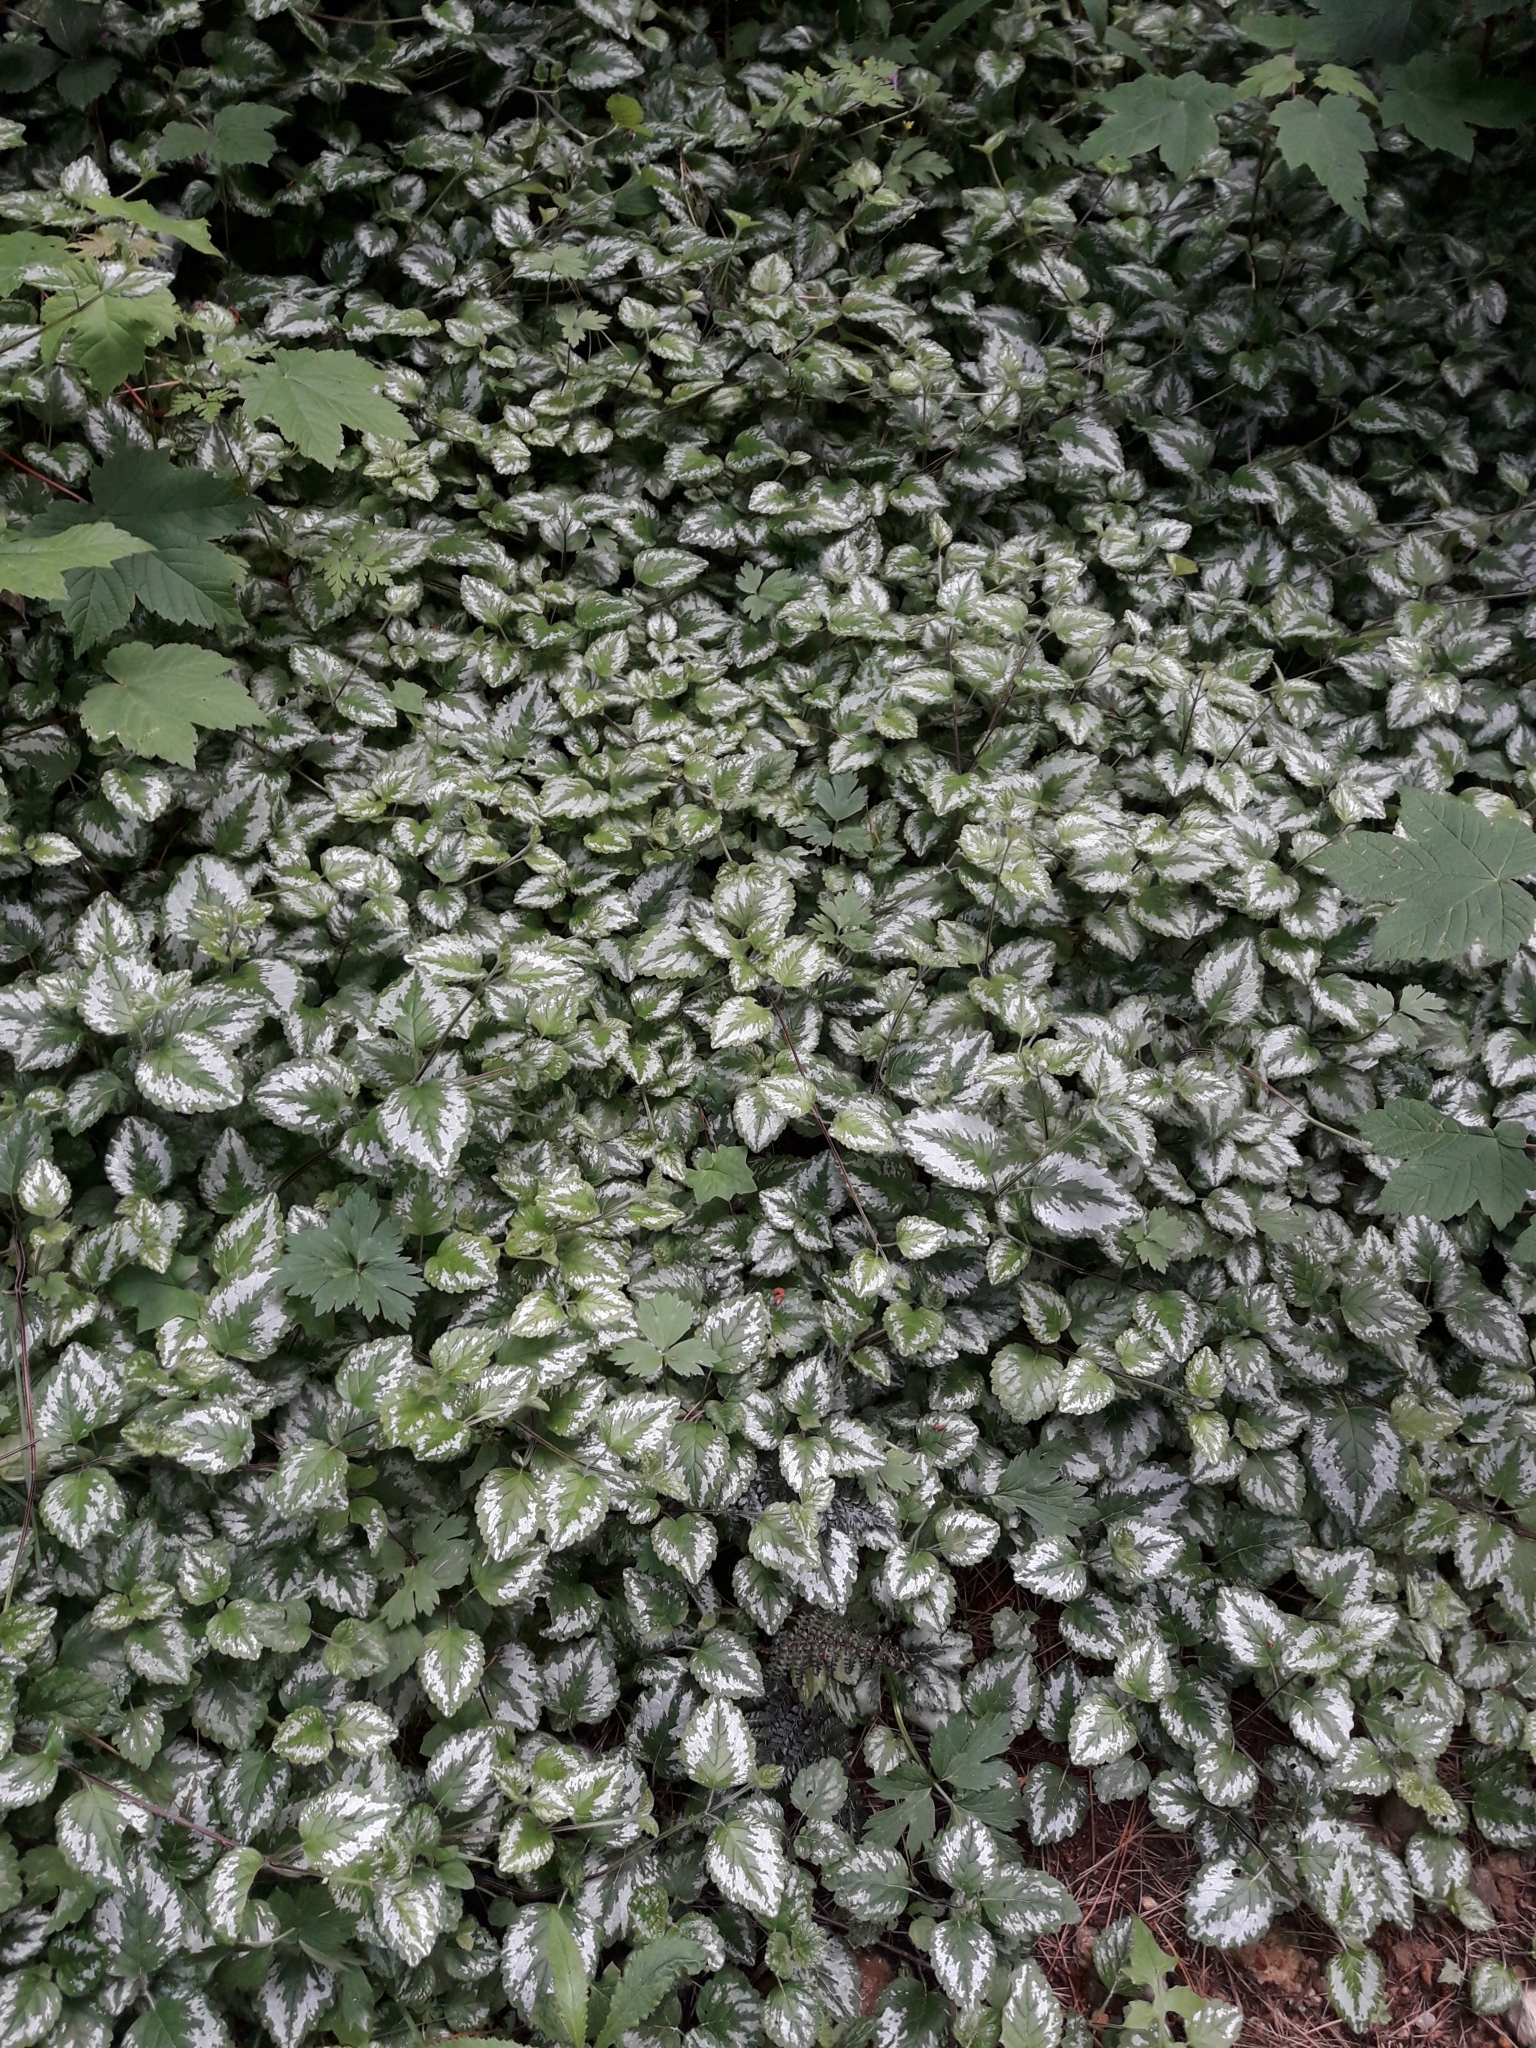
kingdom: Plantae
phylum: Tracheophyta
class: Magnoliopsida
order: Lamiales
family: Lamiaceae
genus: Lamium
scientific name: Lamium galeobdolon
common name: Yellow archangel
